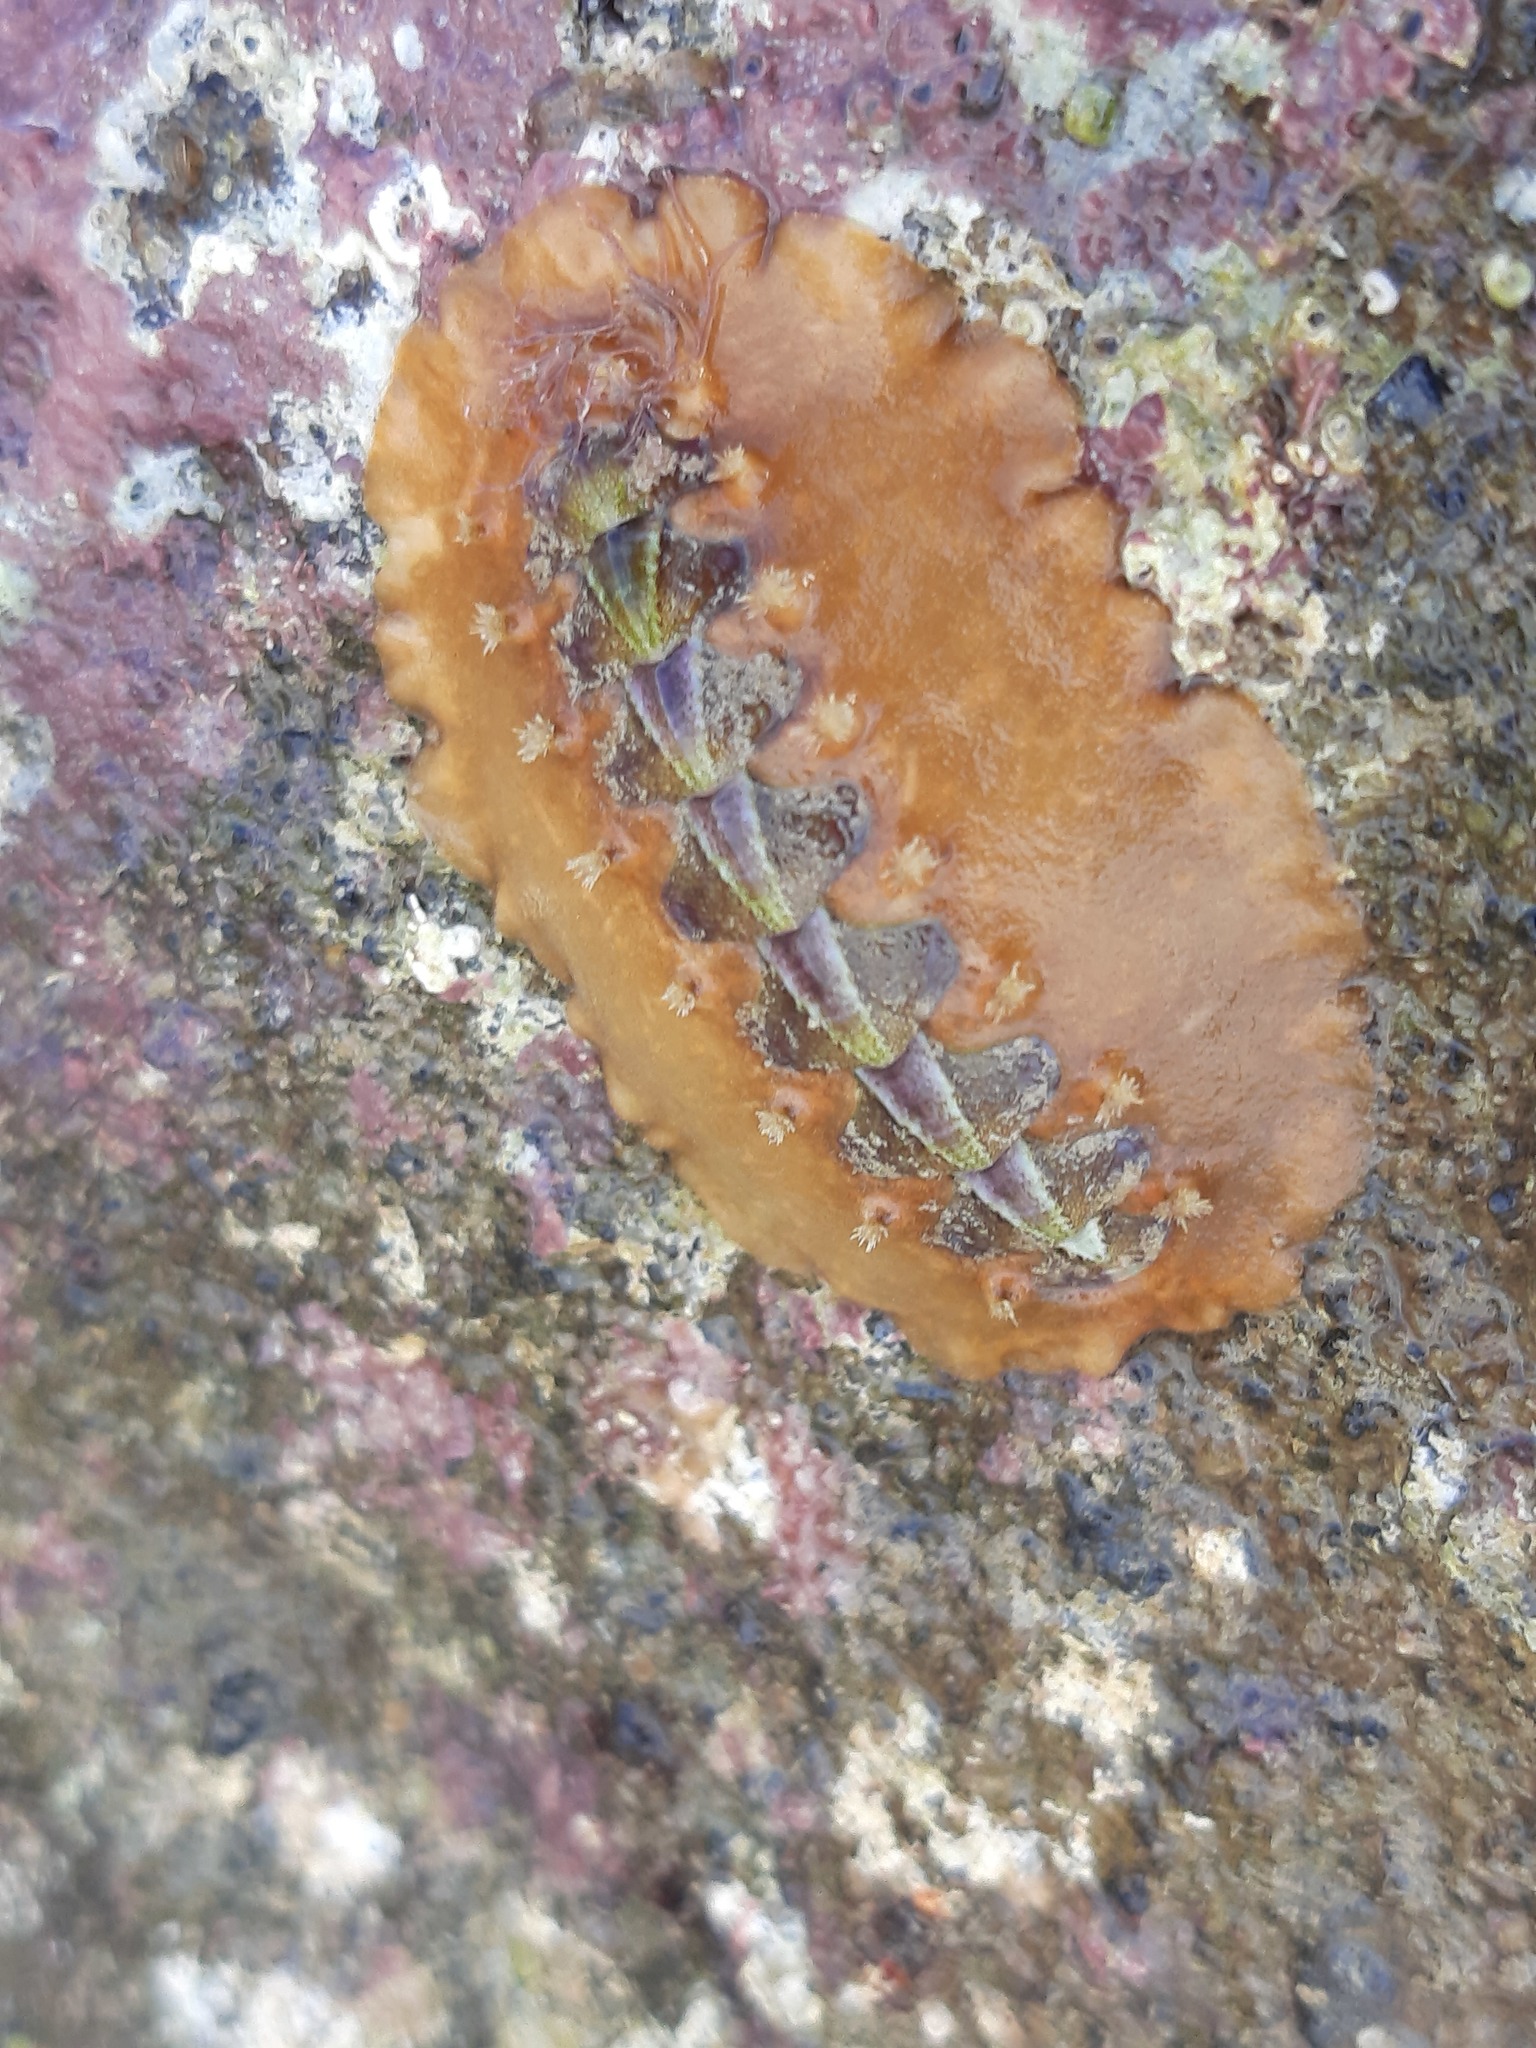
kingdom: Animalia
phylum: Mollusca
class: Polyplacophora
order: Chitonida
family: Acanthochitonidae
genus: Notoplax
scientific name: Notoplax violacea
